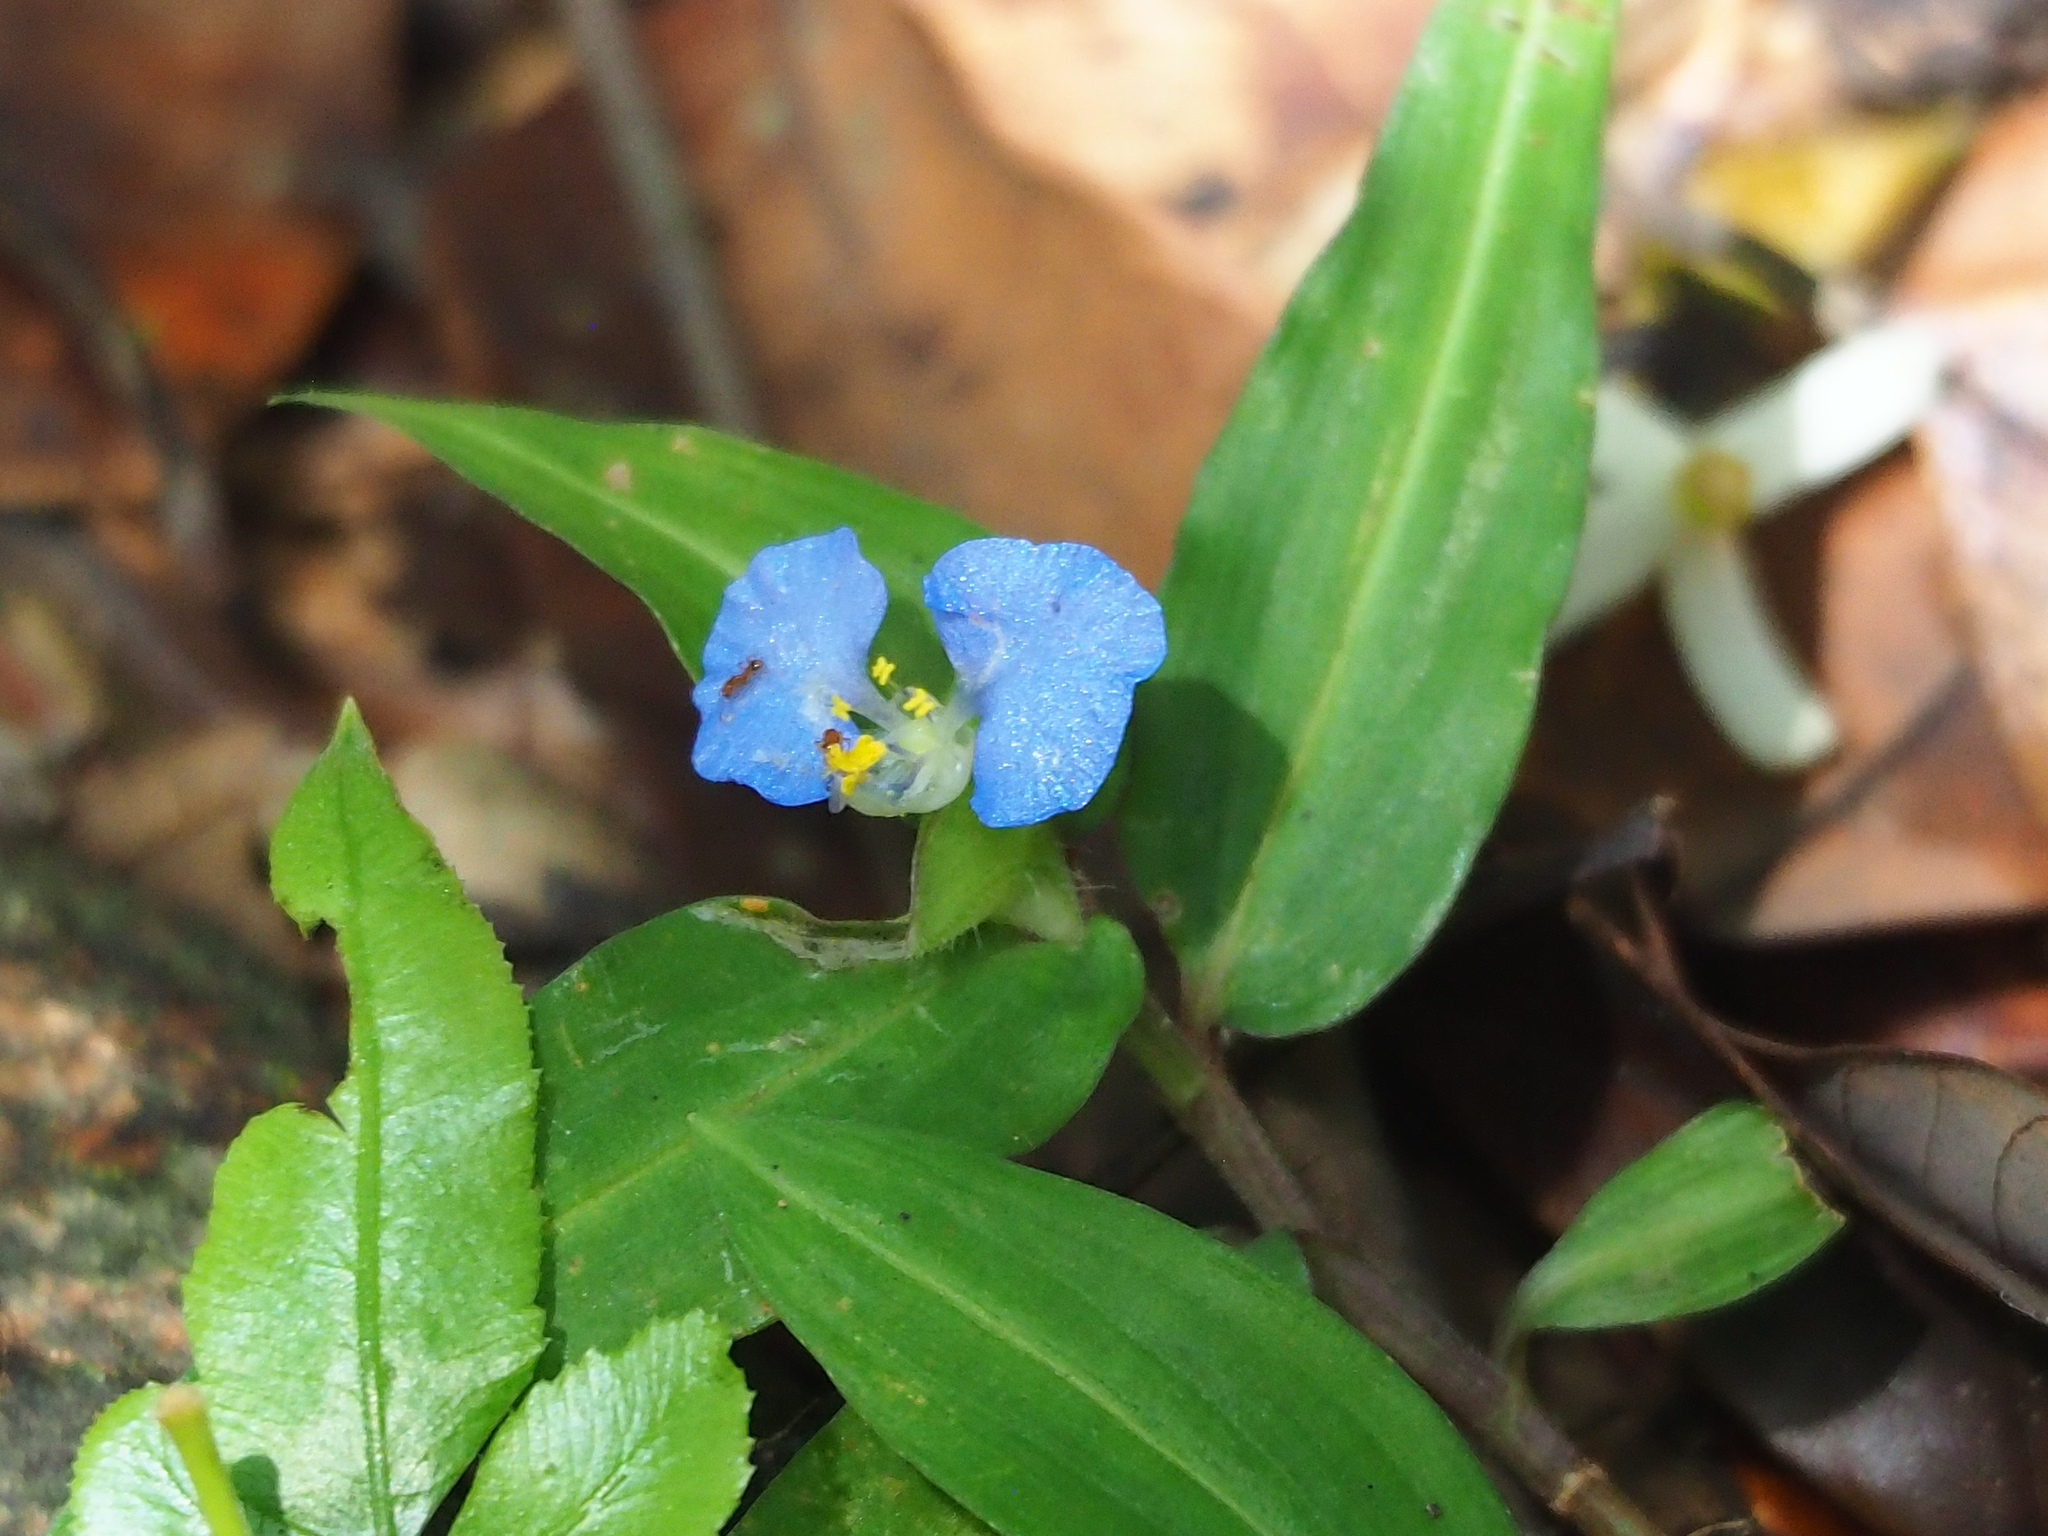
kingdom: Plantae
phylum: Tracheophyta
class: Liliopsida
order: Commelinales
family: Commelinaceae
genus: Commelina
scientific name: Commelina auriculata
